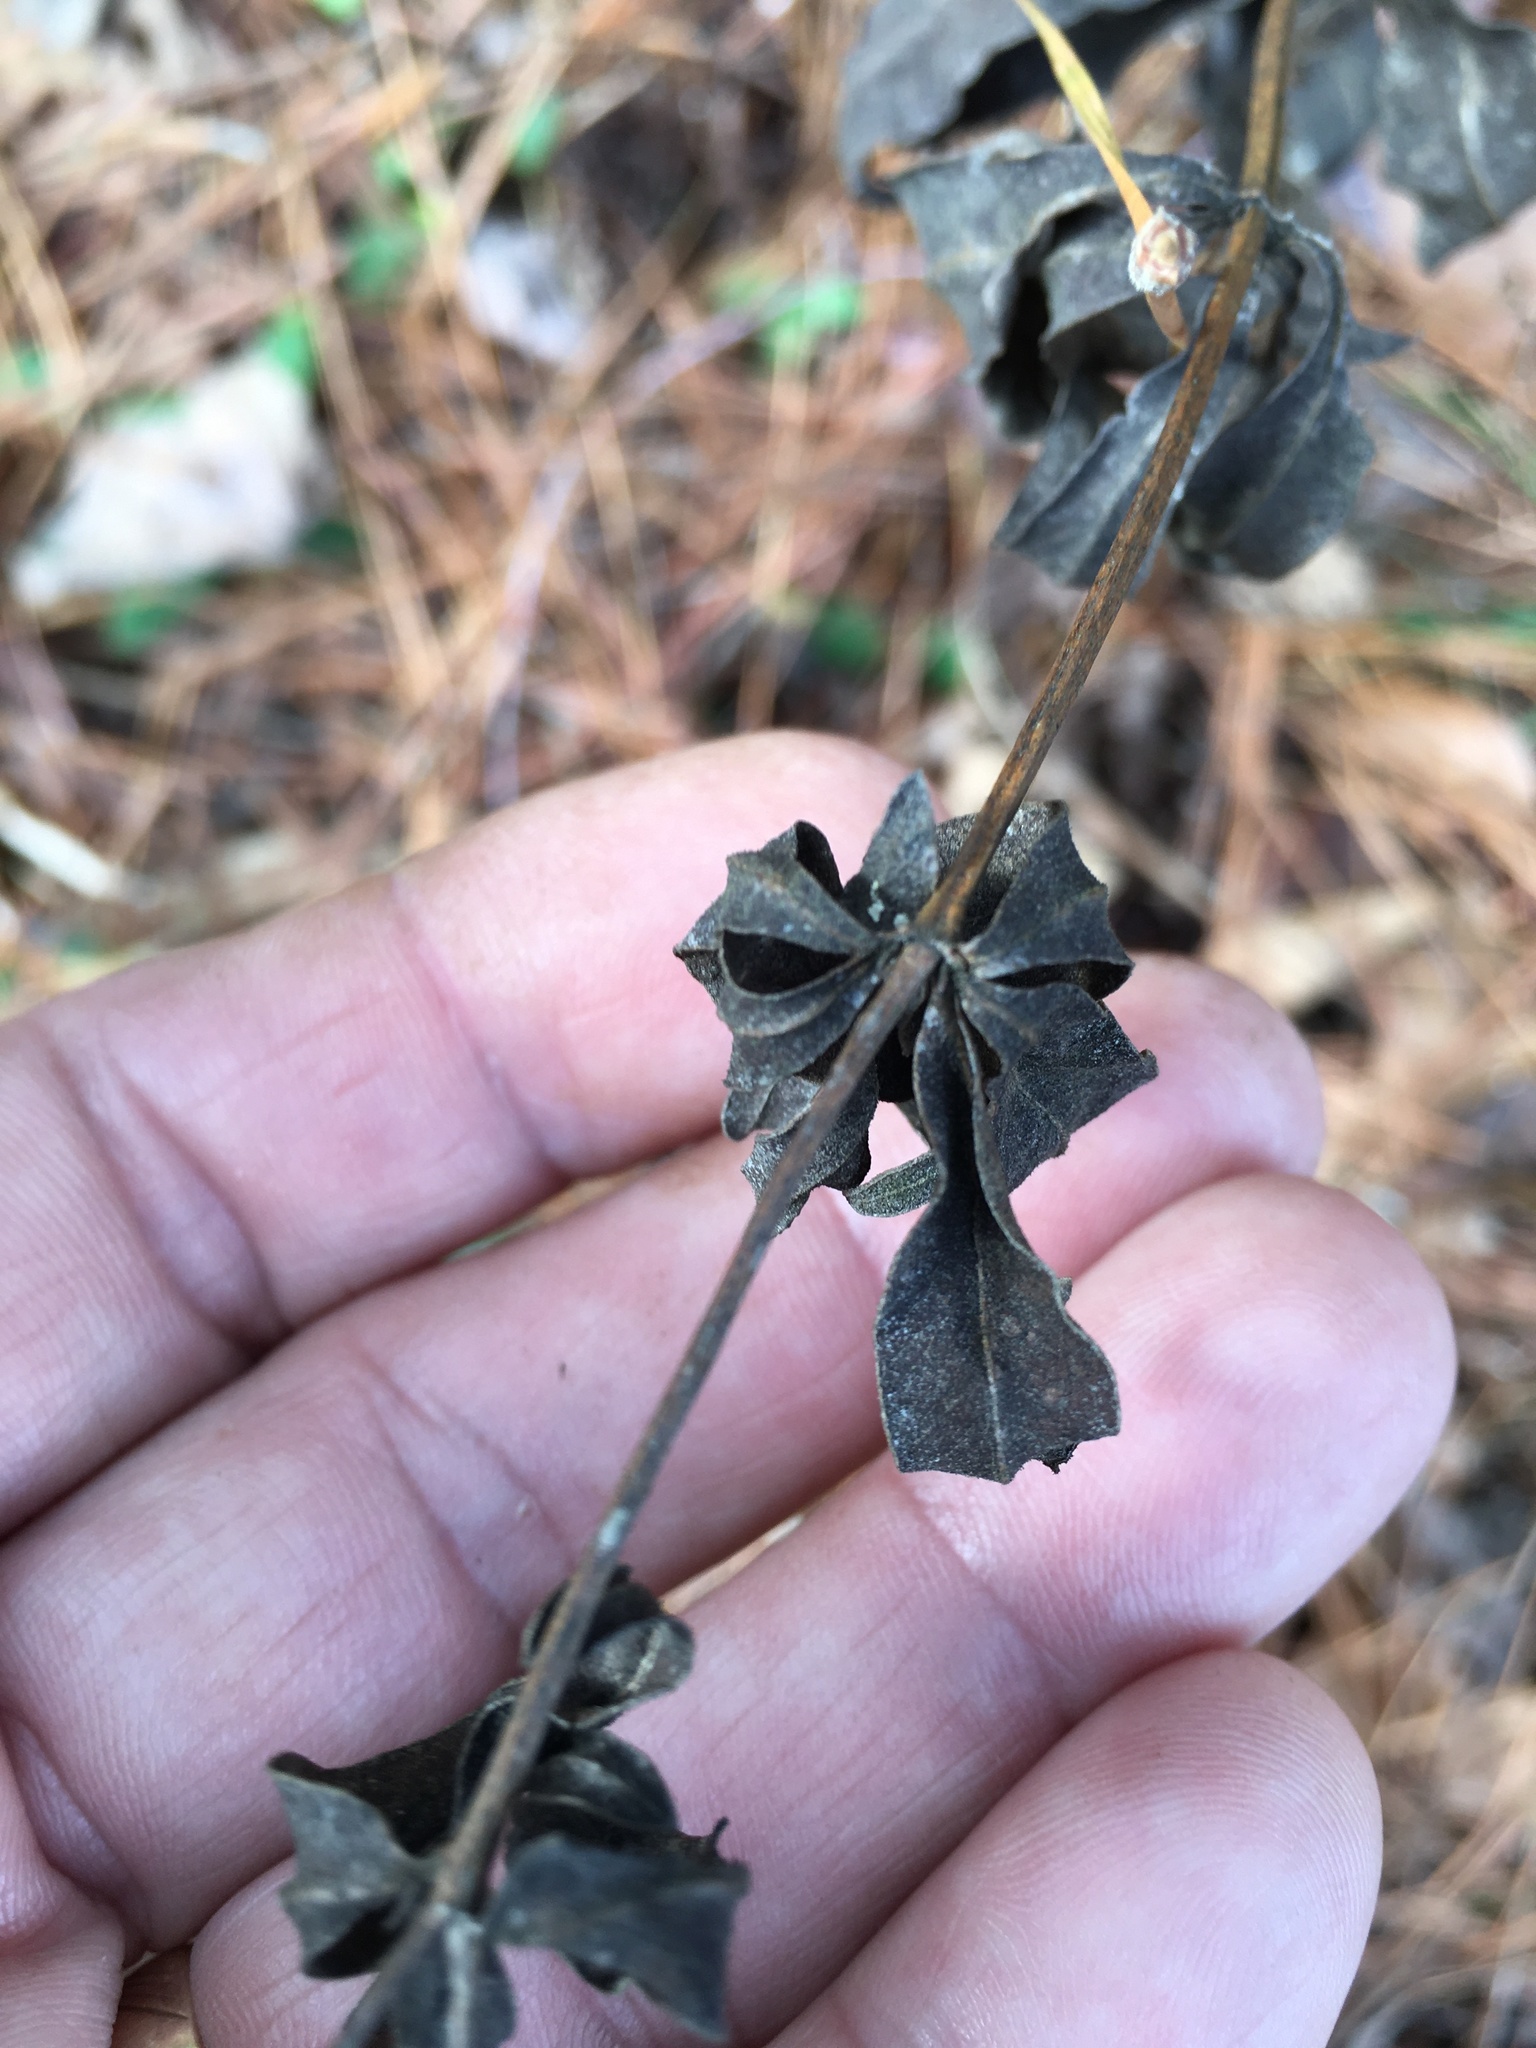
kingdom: Plantae
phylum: Tracheophyta
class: Magnoliopsida
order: Asterales
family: Asteraceae
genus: Coreopsis
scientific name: Coreopsis major
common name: Forest tickseed
